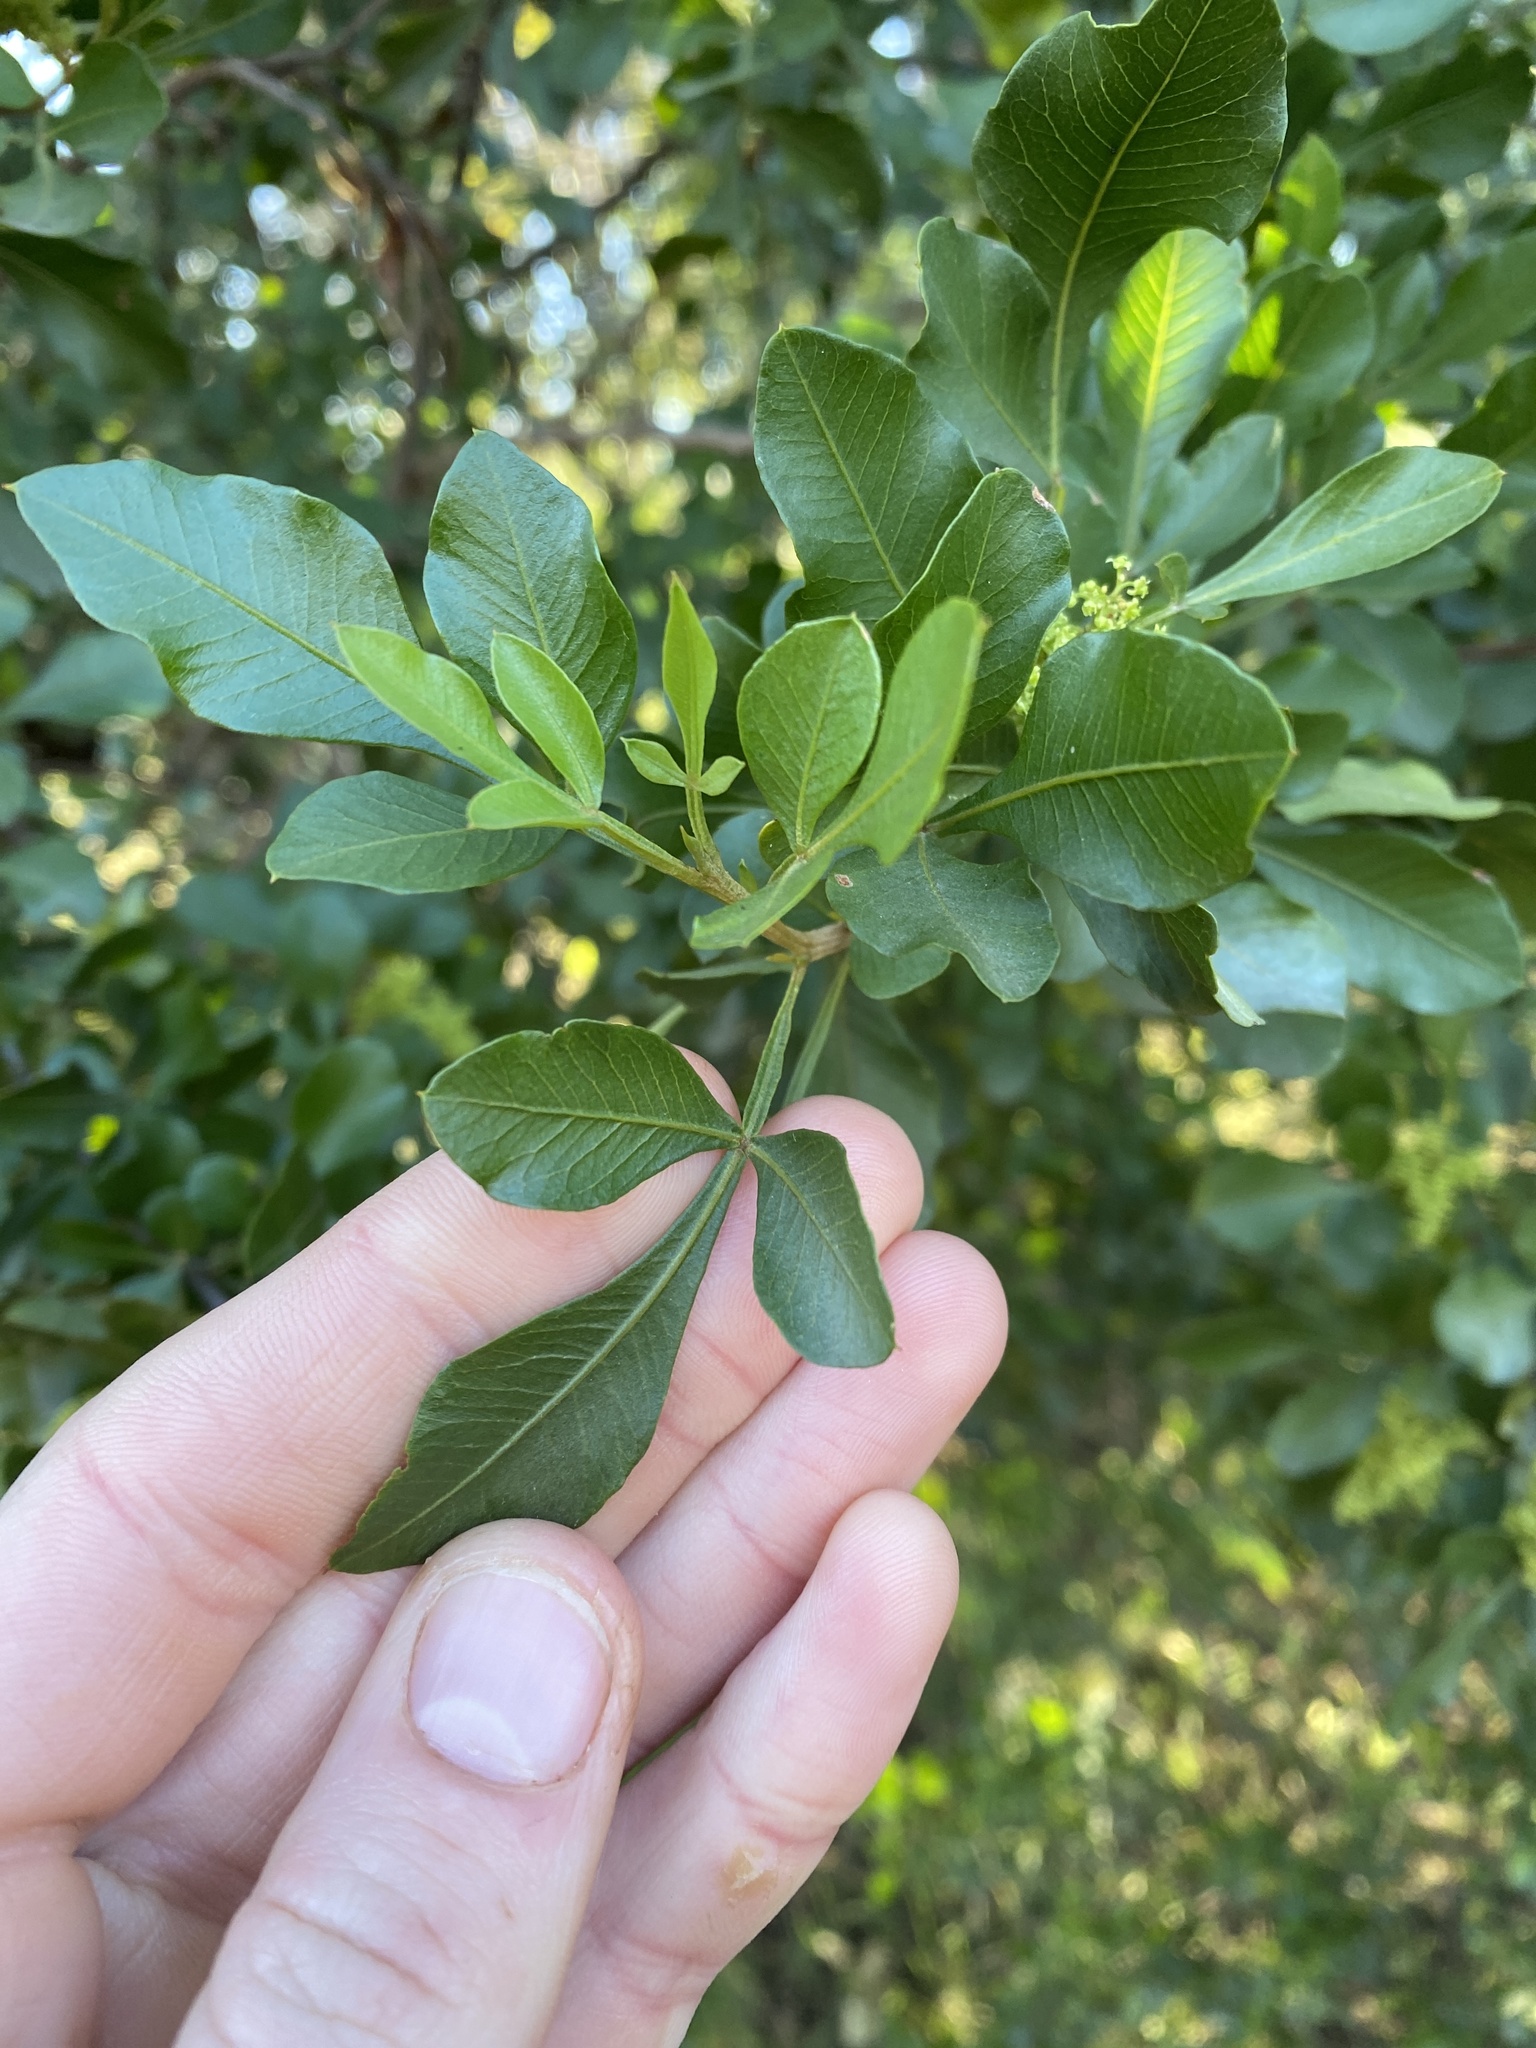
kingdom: Plantae
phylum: Tracheophyta
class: Magnoliopsida
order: Sapindales
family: Anacardiaceae
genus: Searsia
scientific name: Searsia pallens
